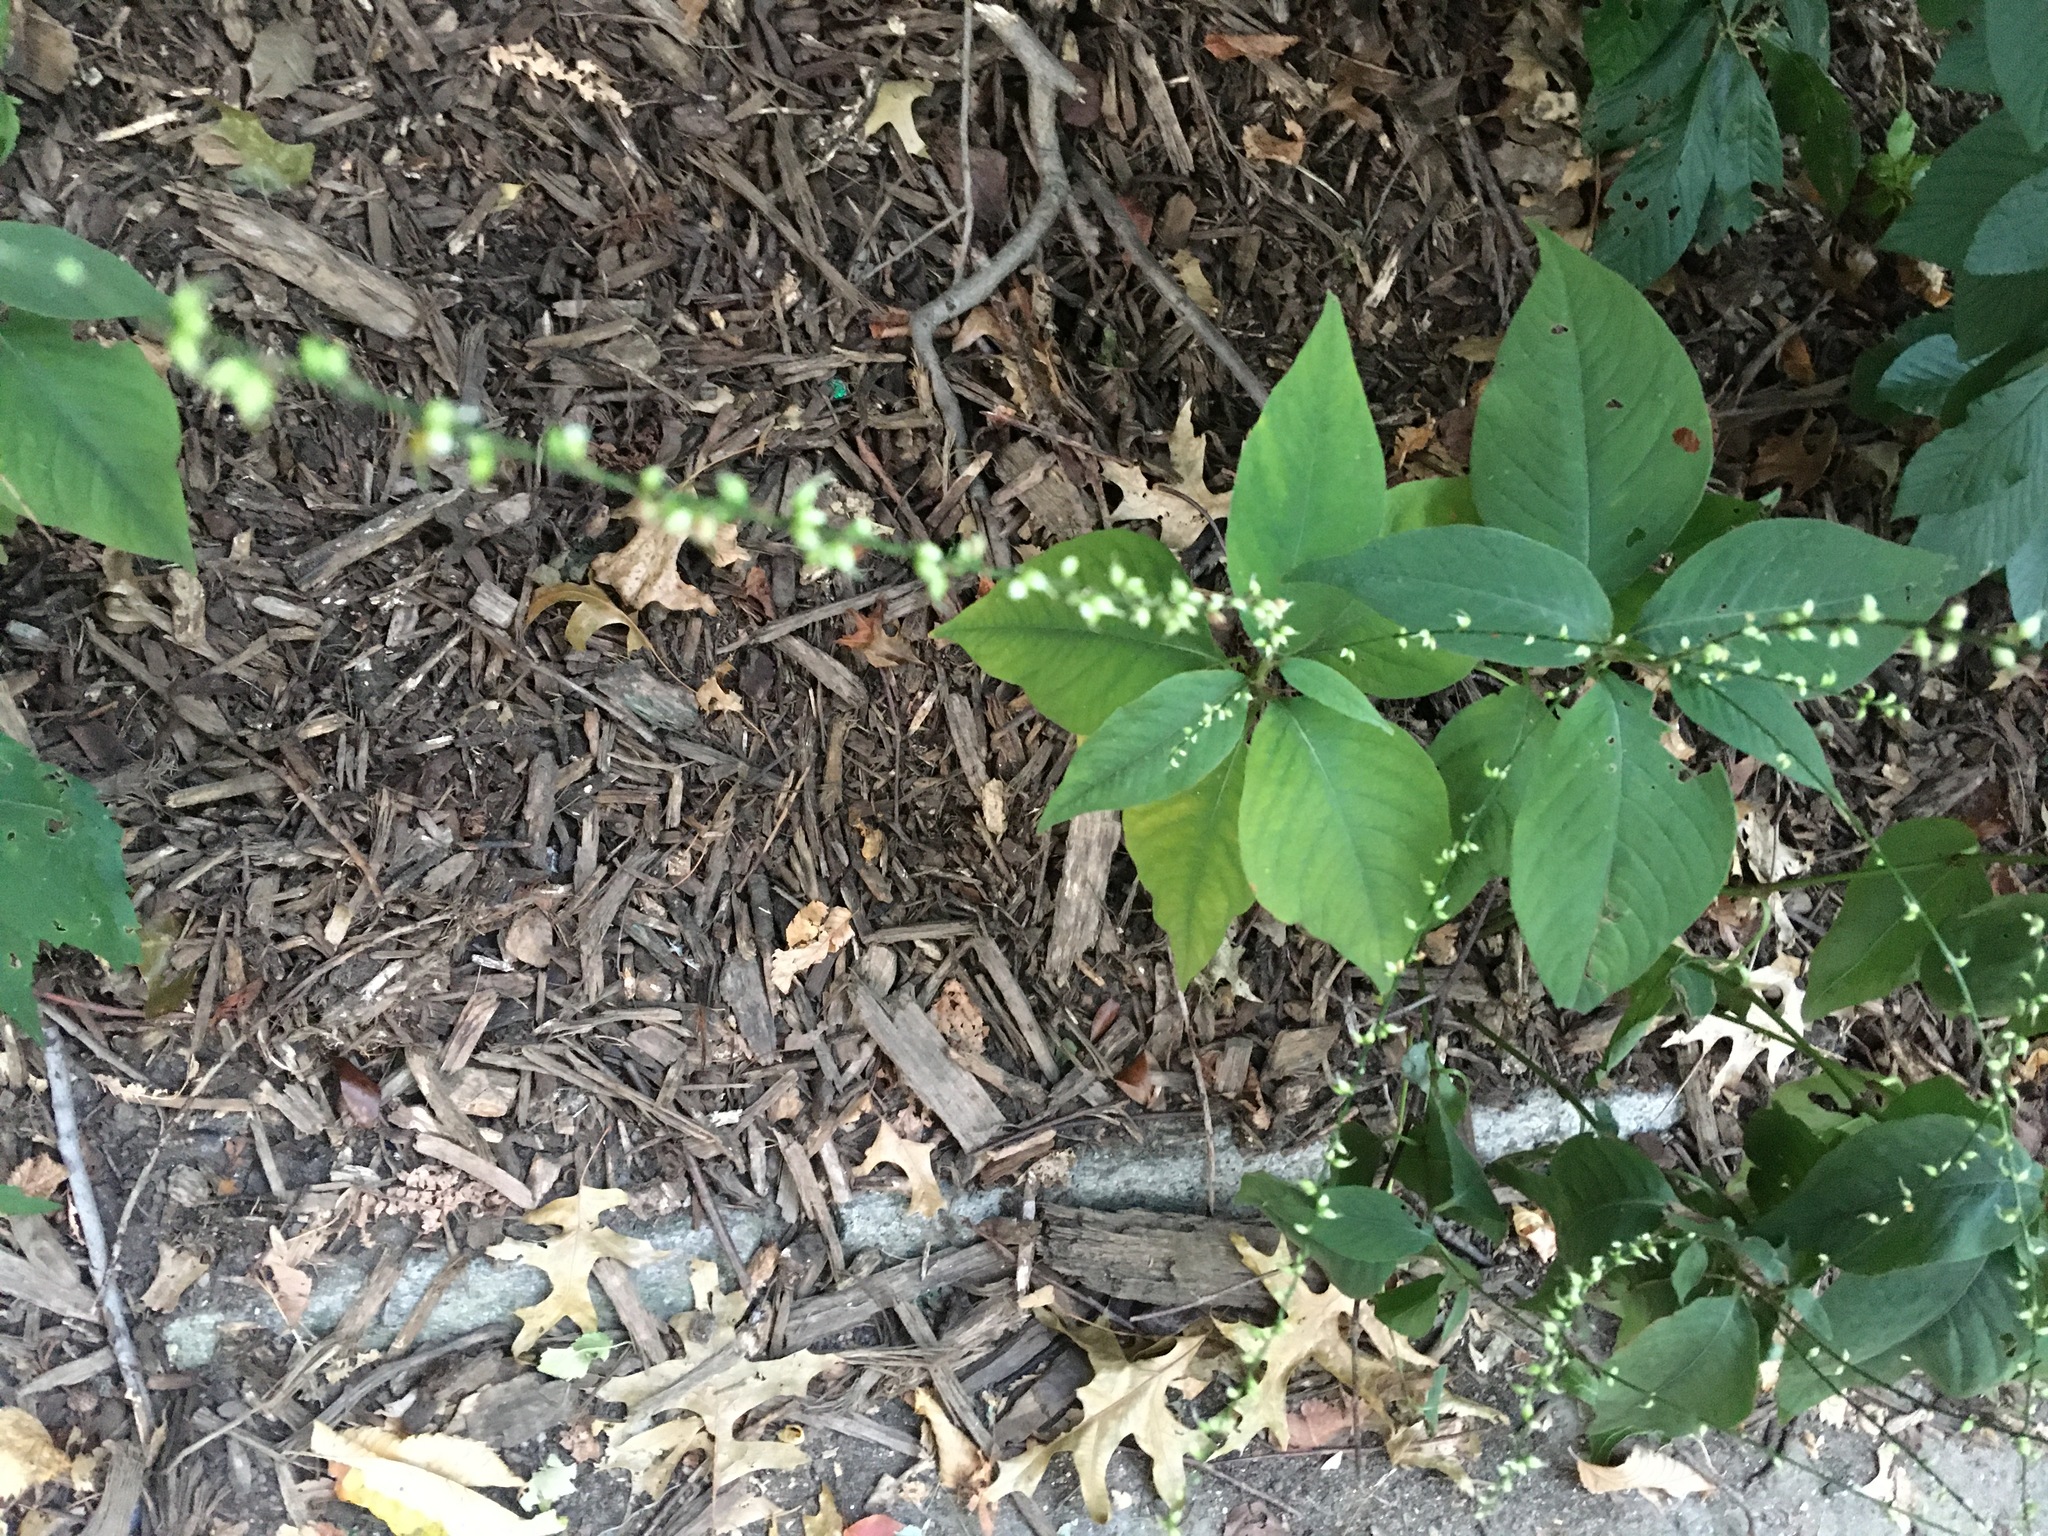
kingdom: Plantae
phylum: Tracheophyta
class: Magnoliopsida
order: Caryophyllales
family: Polygonaceae
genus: Persicaria
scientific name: Persicaria virginiana
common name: Jumpseed
